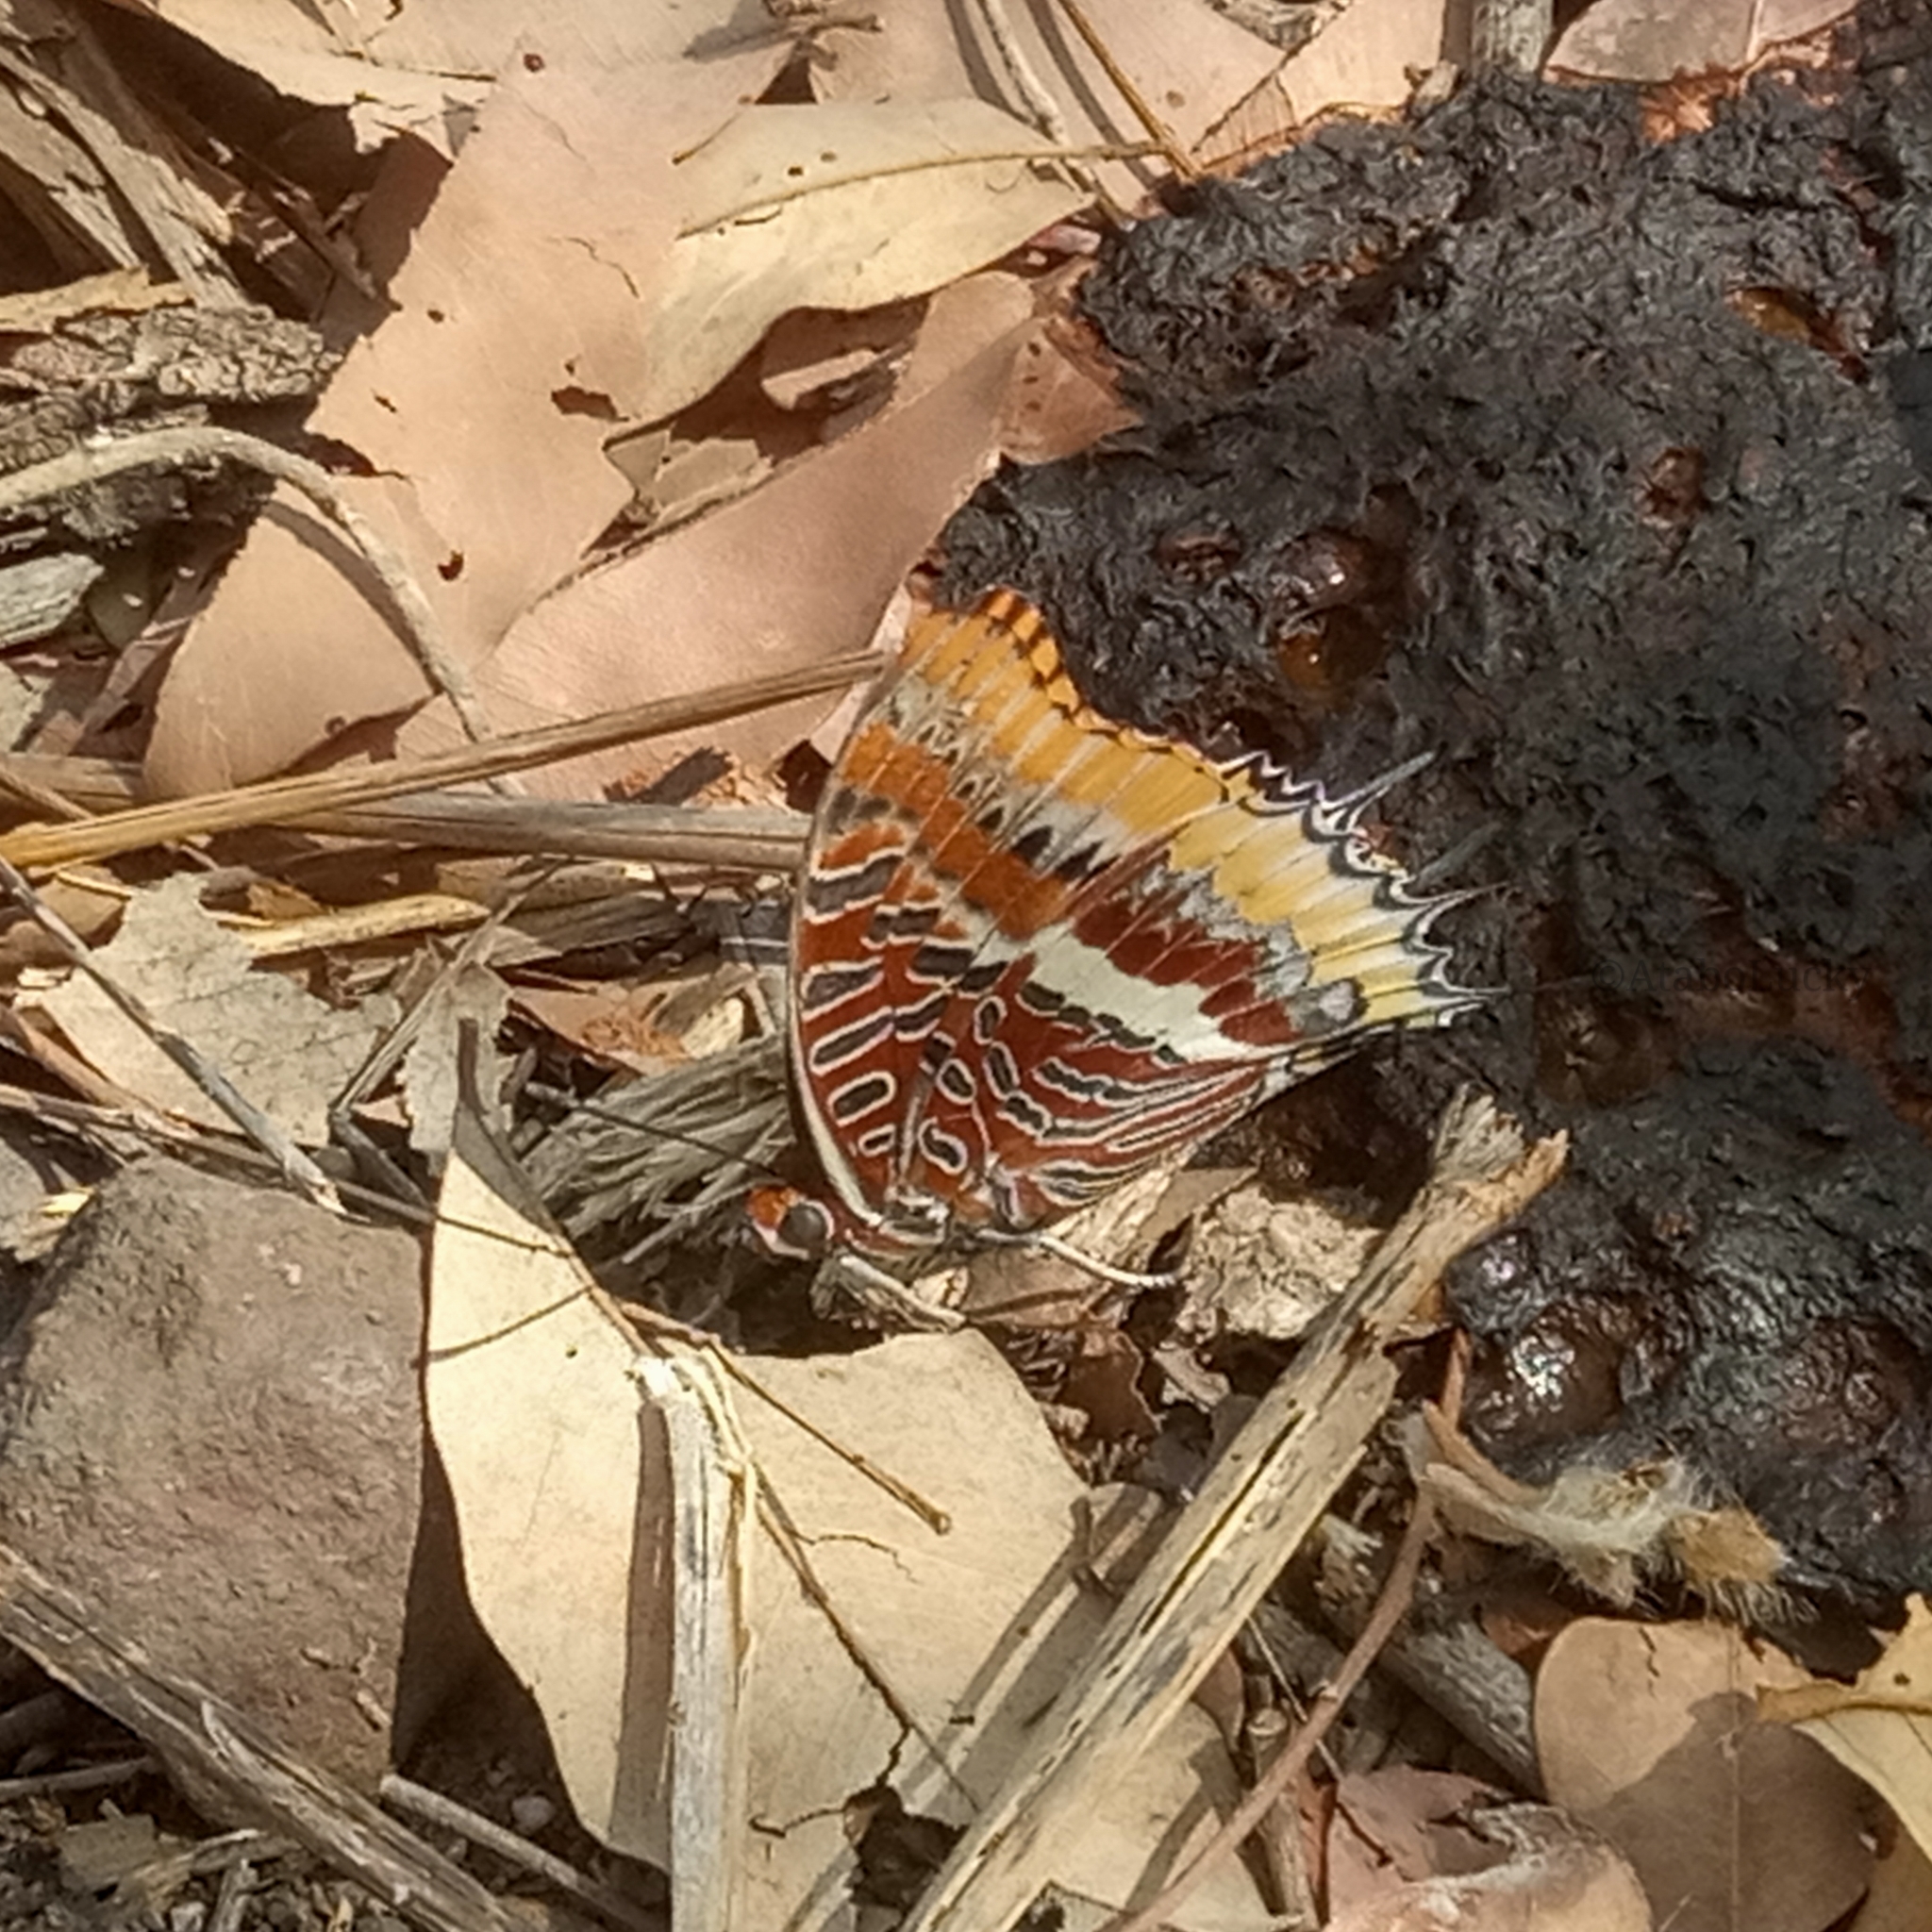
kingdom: Animalia
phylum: Arthropoda
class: Insecta
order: Lepidoptera
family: Nymphalidae
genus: Charaxes
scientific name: Charaxes jasius
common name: Two tailed pasha
